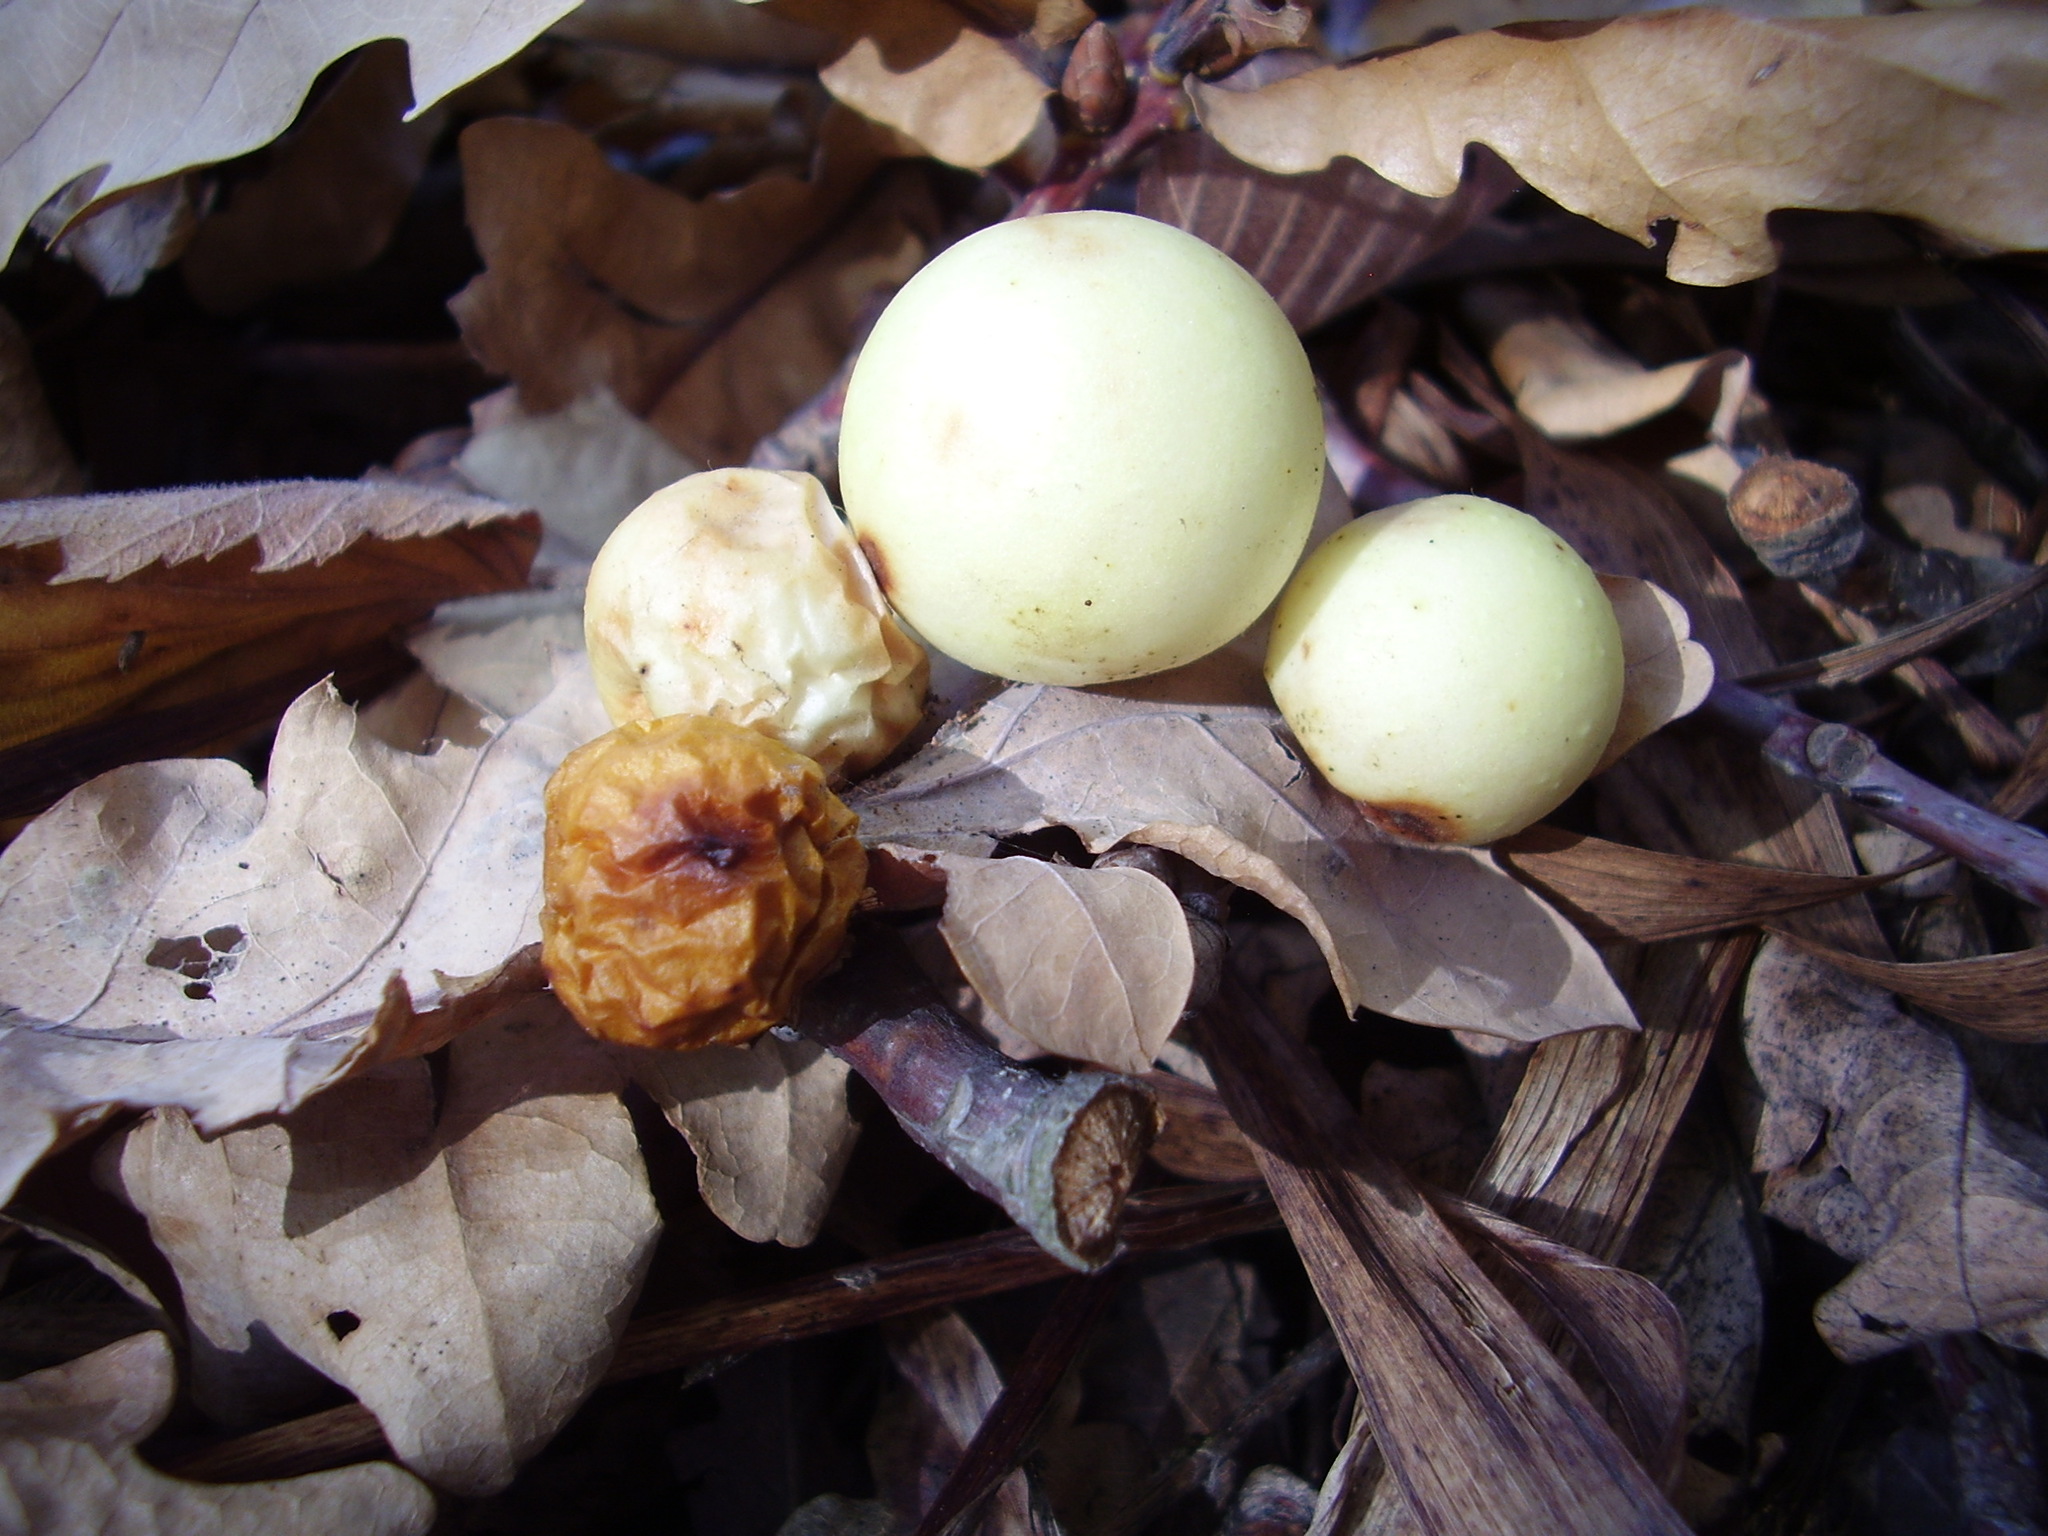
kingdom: Animalia
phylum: Arthropoda
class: Insecta
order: Hymenoptera
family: Cynipidae
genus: Cynips
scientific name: Cynips quercusfolii
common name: Cherry gall
